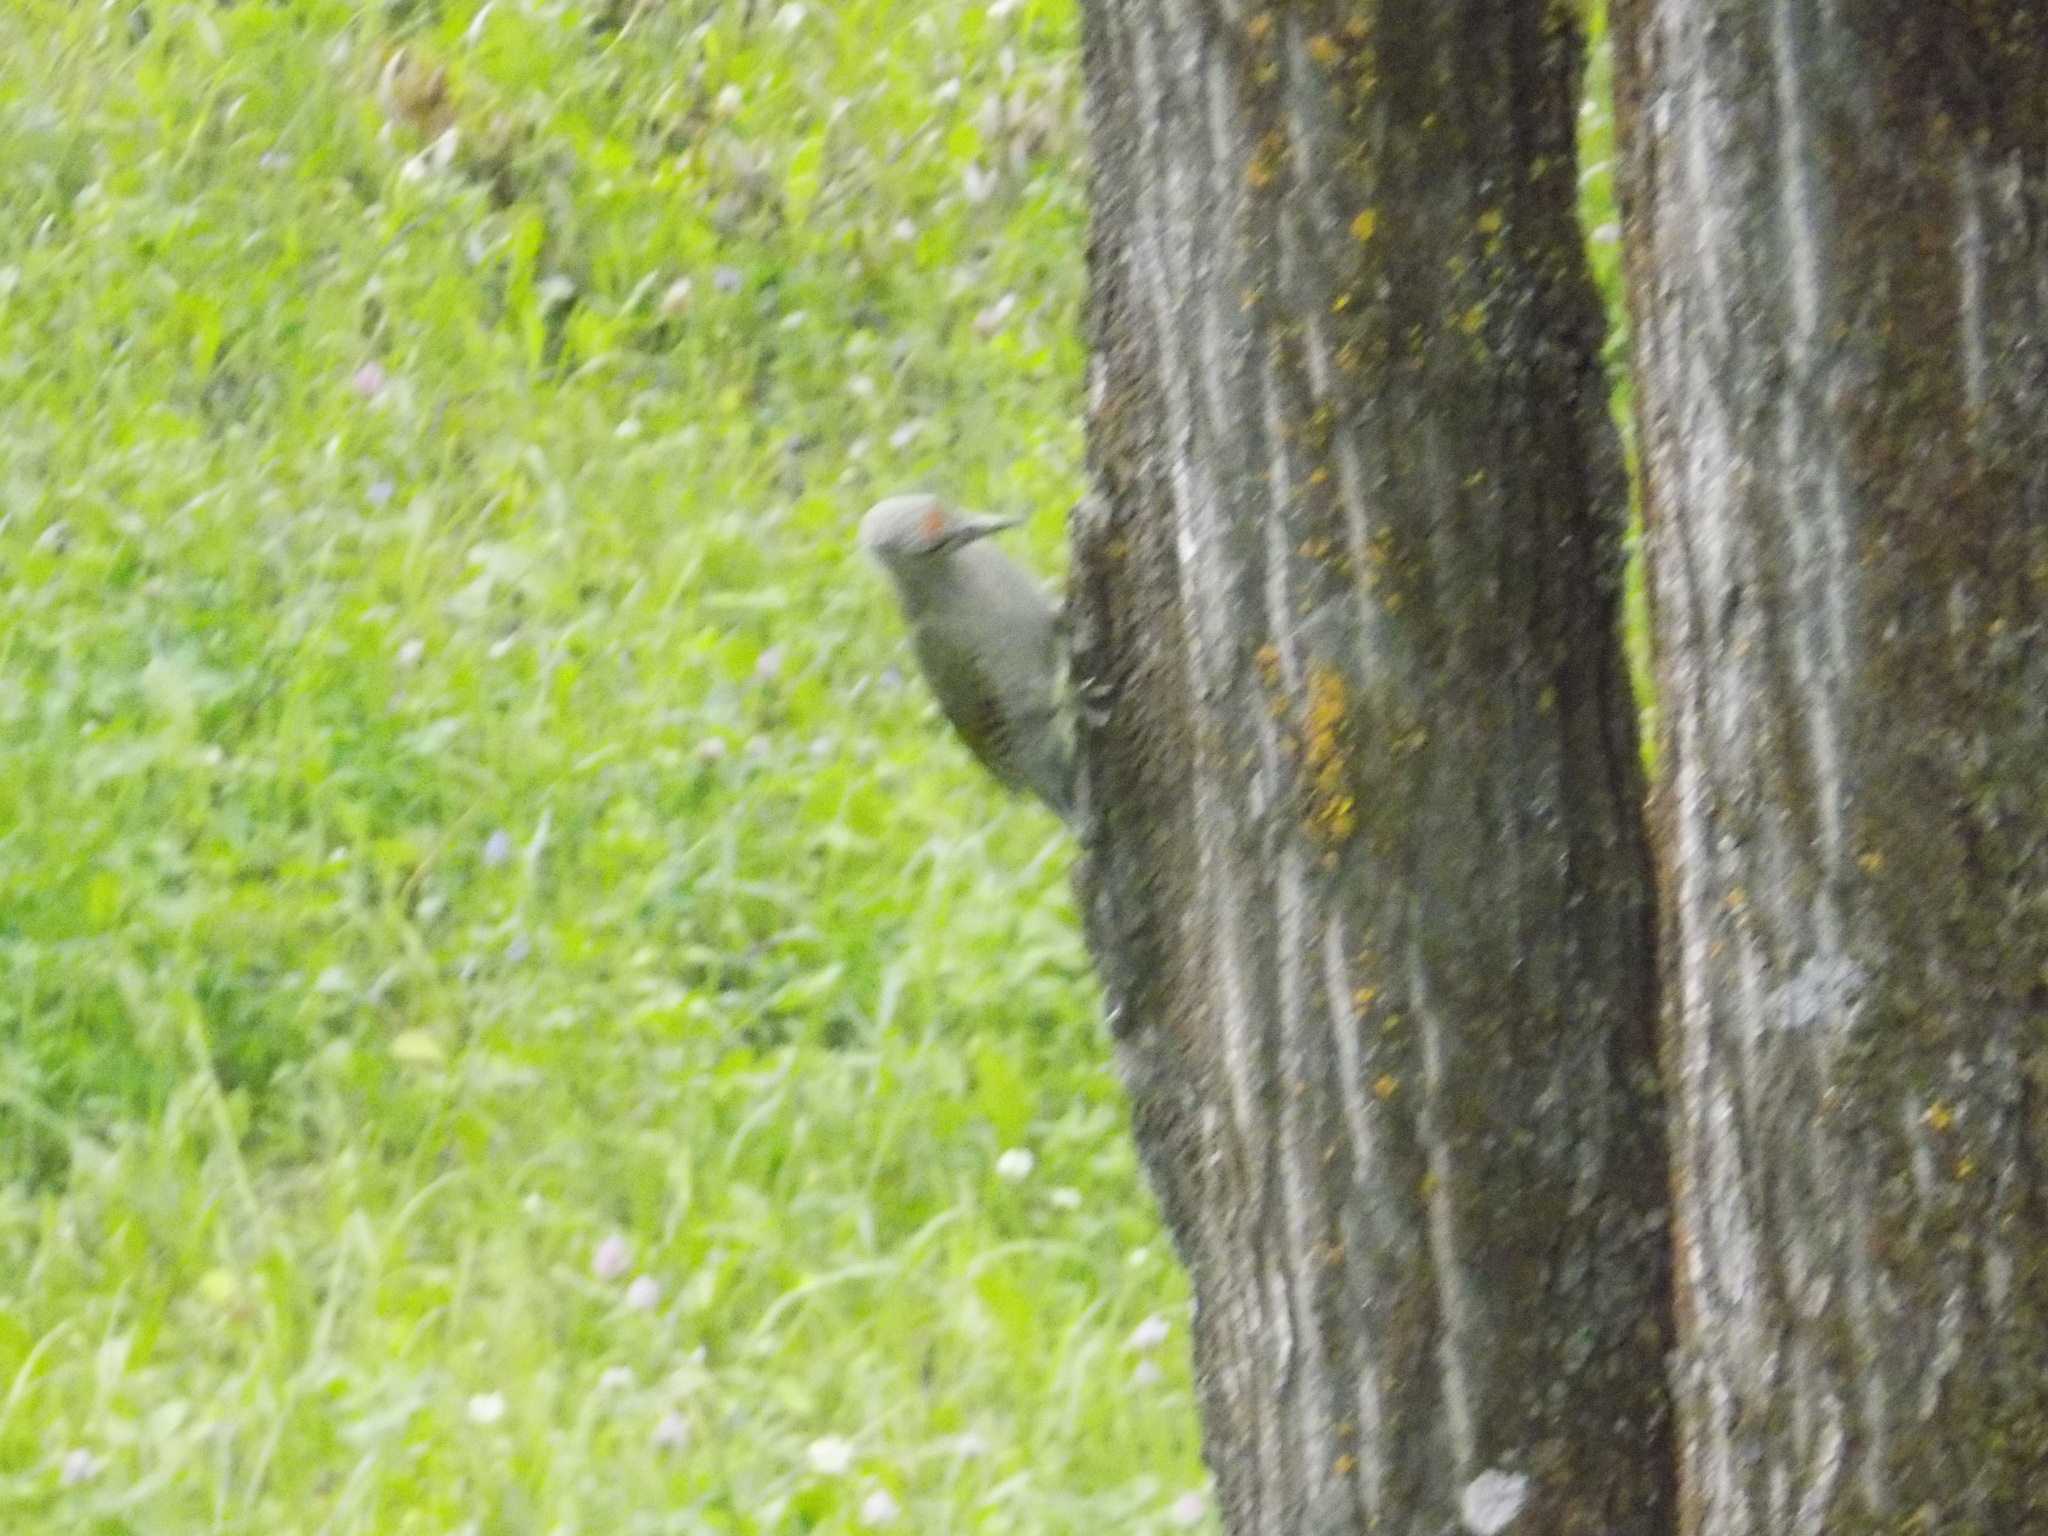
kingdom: Animalia
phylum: Chordata
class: Aves
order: Piciformes
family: Picidae
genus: Picus
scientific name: Picus canus
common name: Grey-headed woodpecker
